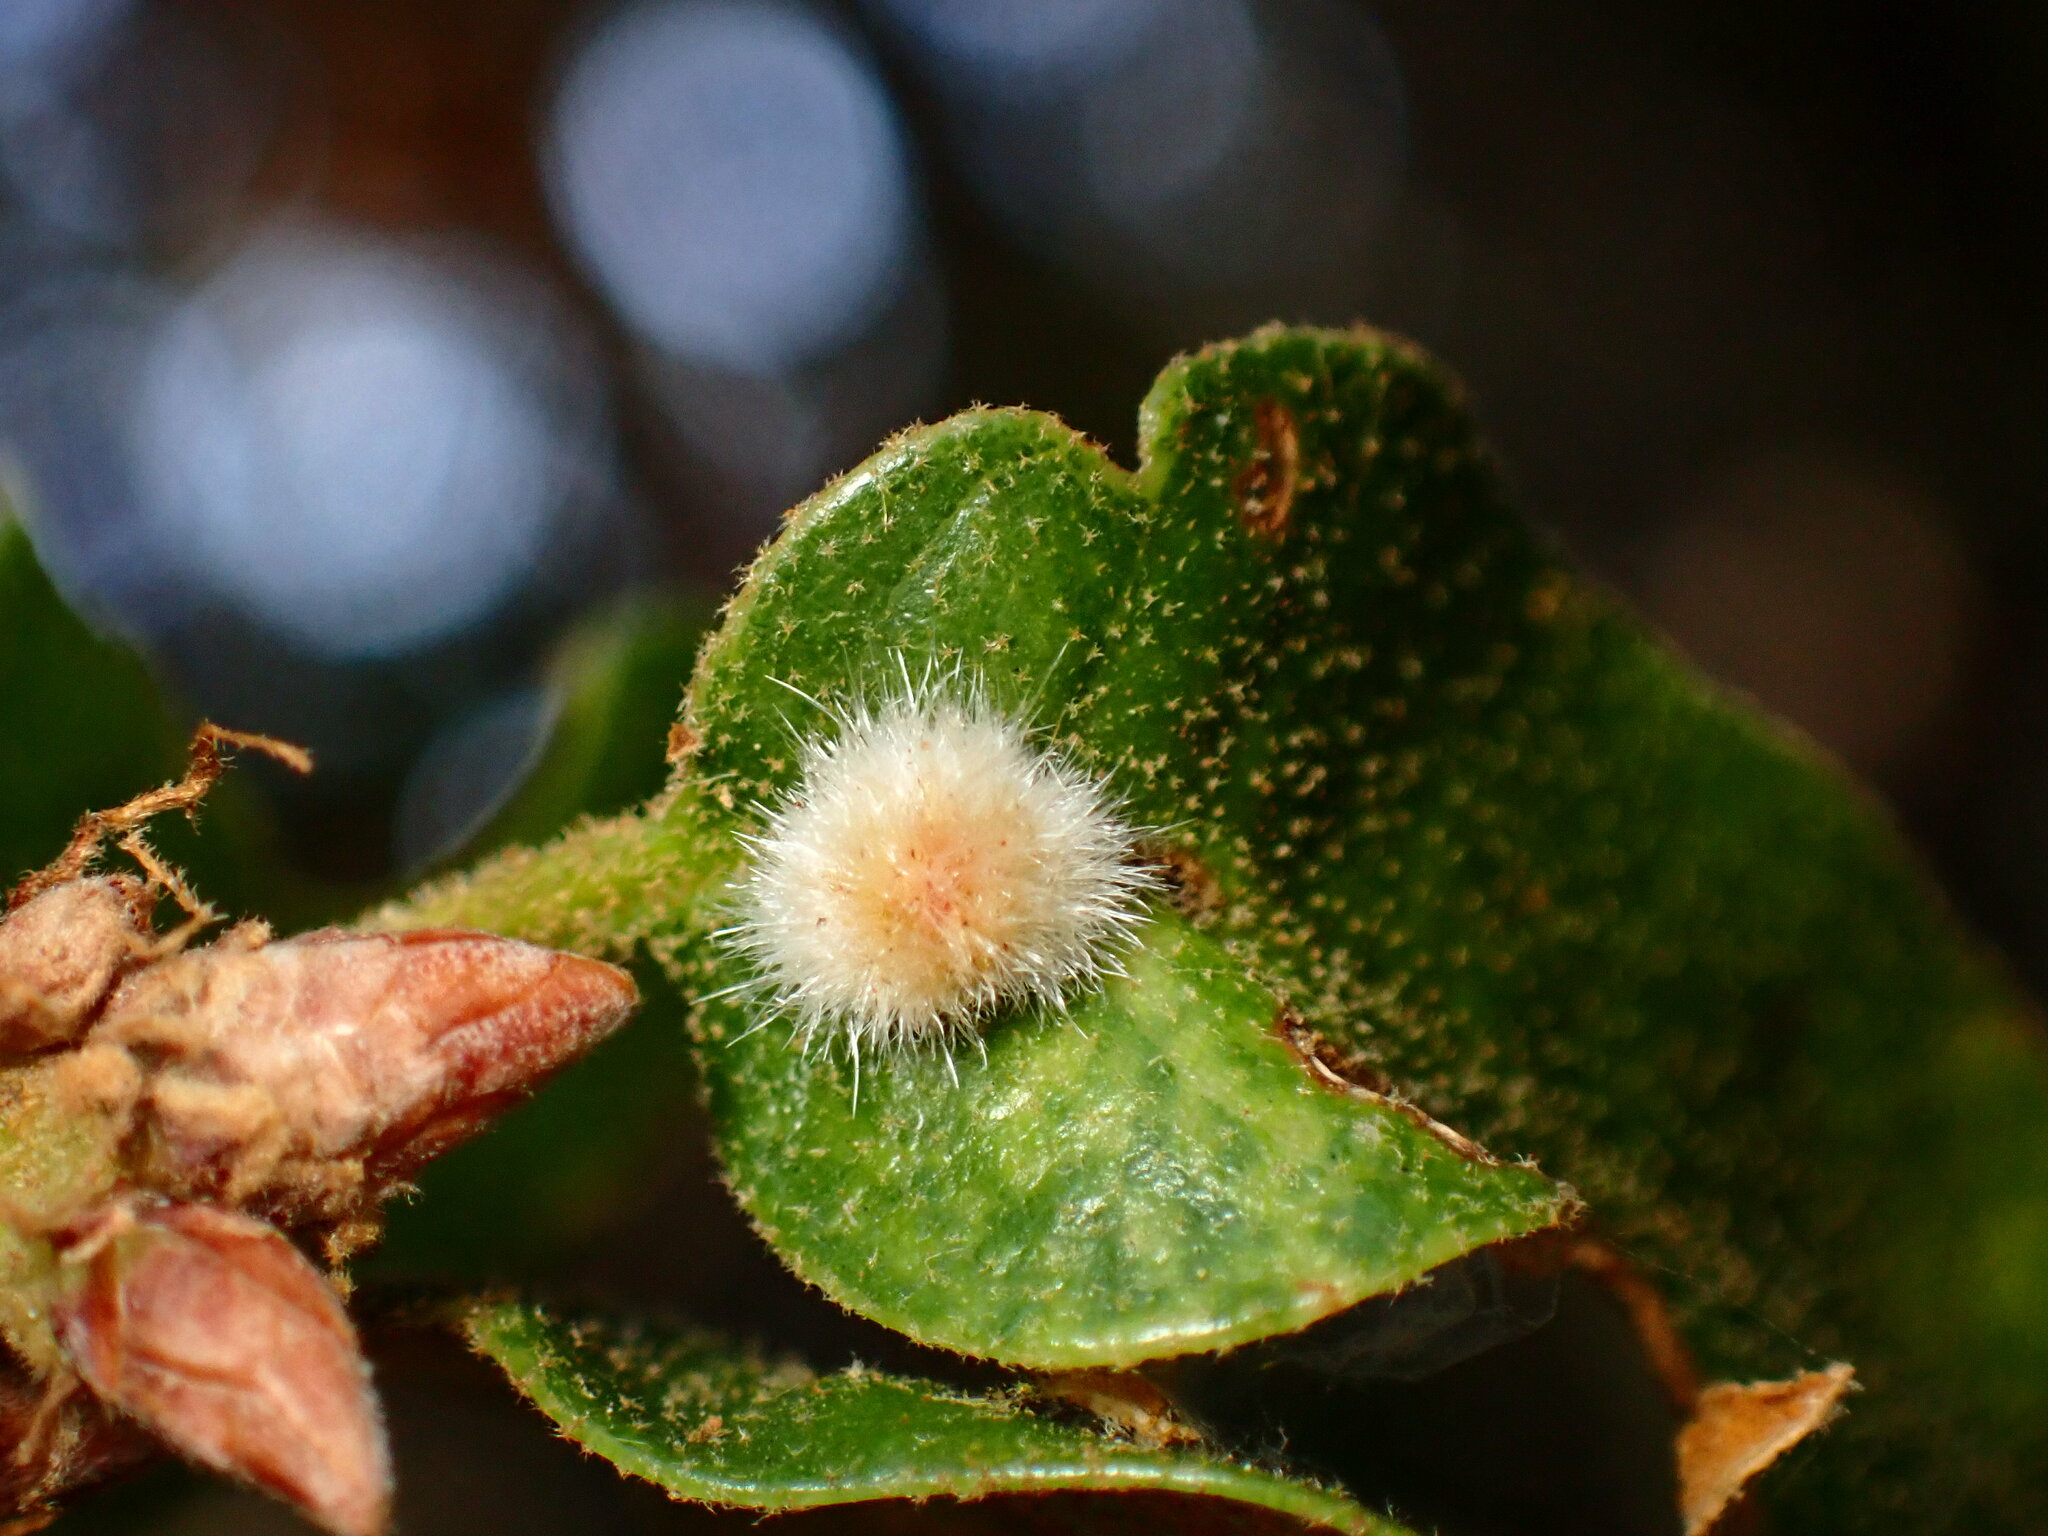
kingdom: Animalia
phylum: Arthropoda
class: Insecta
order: Hymenoptera
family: Cynipidae
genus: Disholandricus
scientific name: Disholandricus
